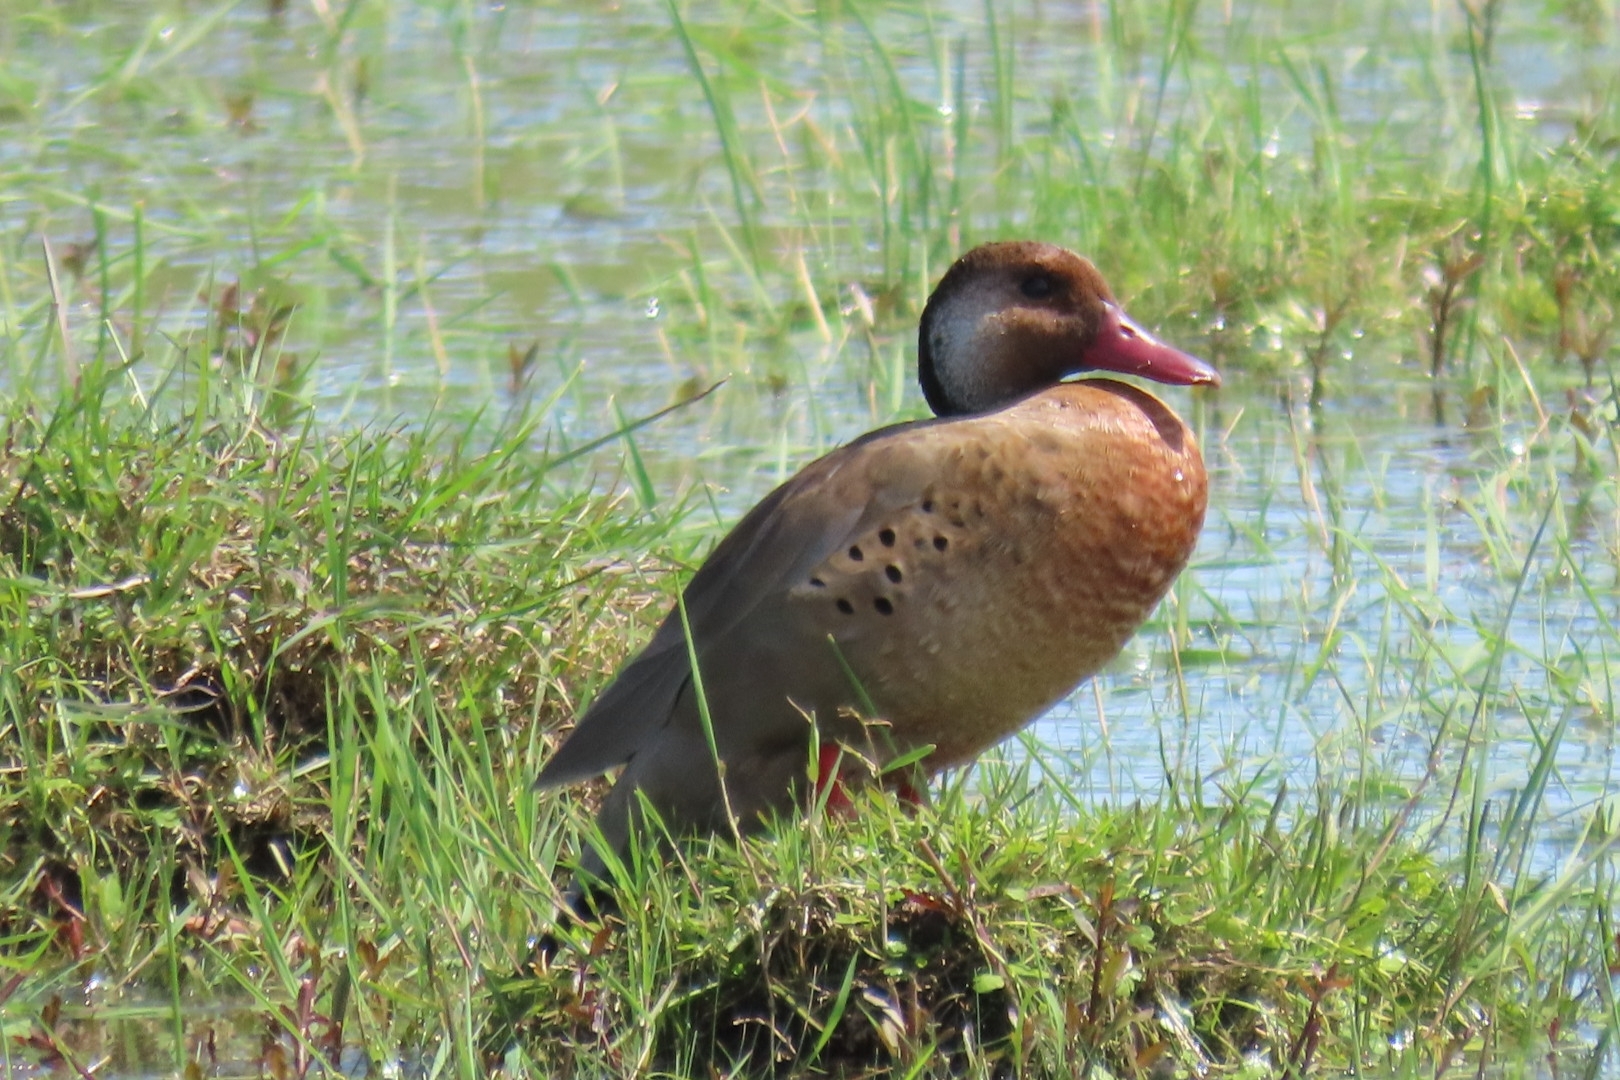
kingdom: Animalia
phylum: Chordata
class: Aves
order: Anseriformes
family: Anatidae
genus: Amazonetta
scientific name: Amazonetta brasiliensis
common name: Brazilian teal
